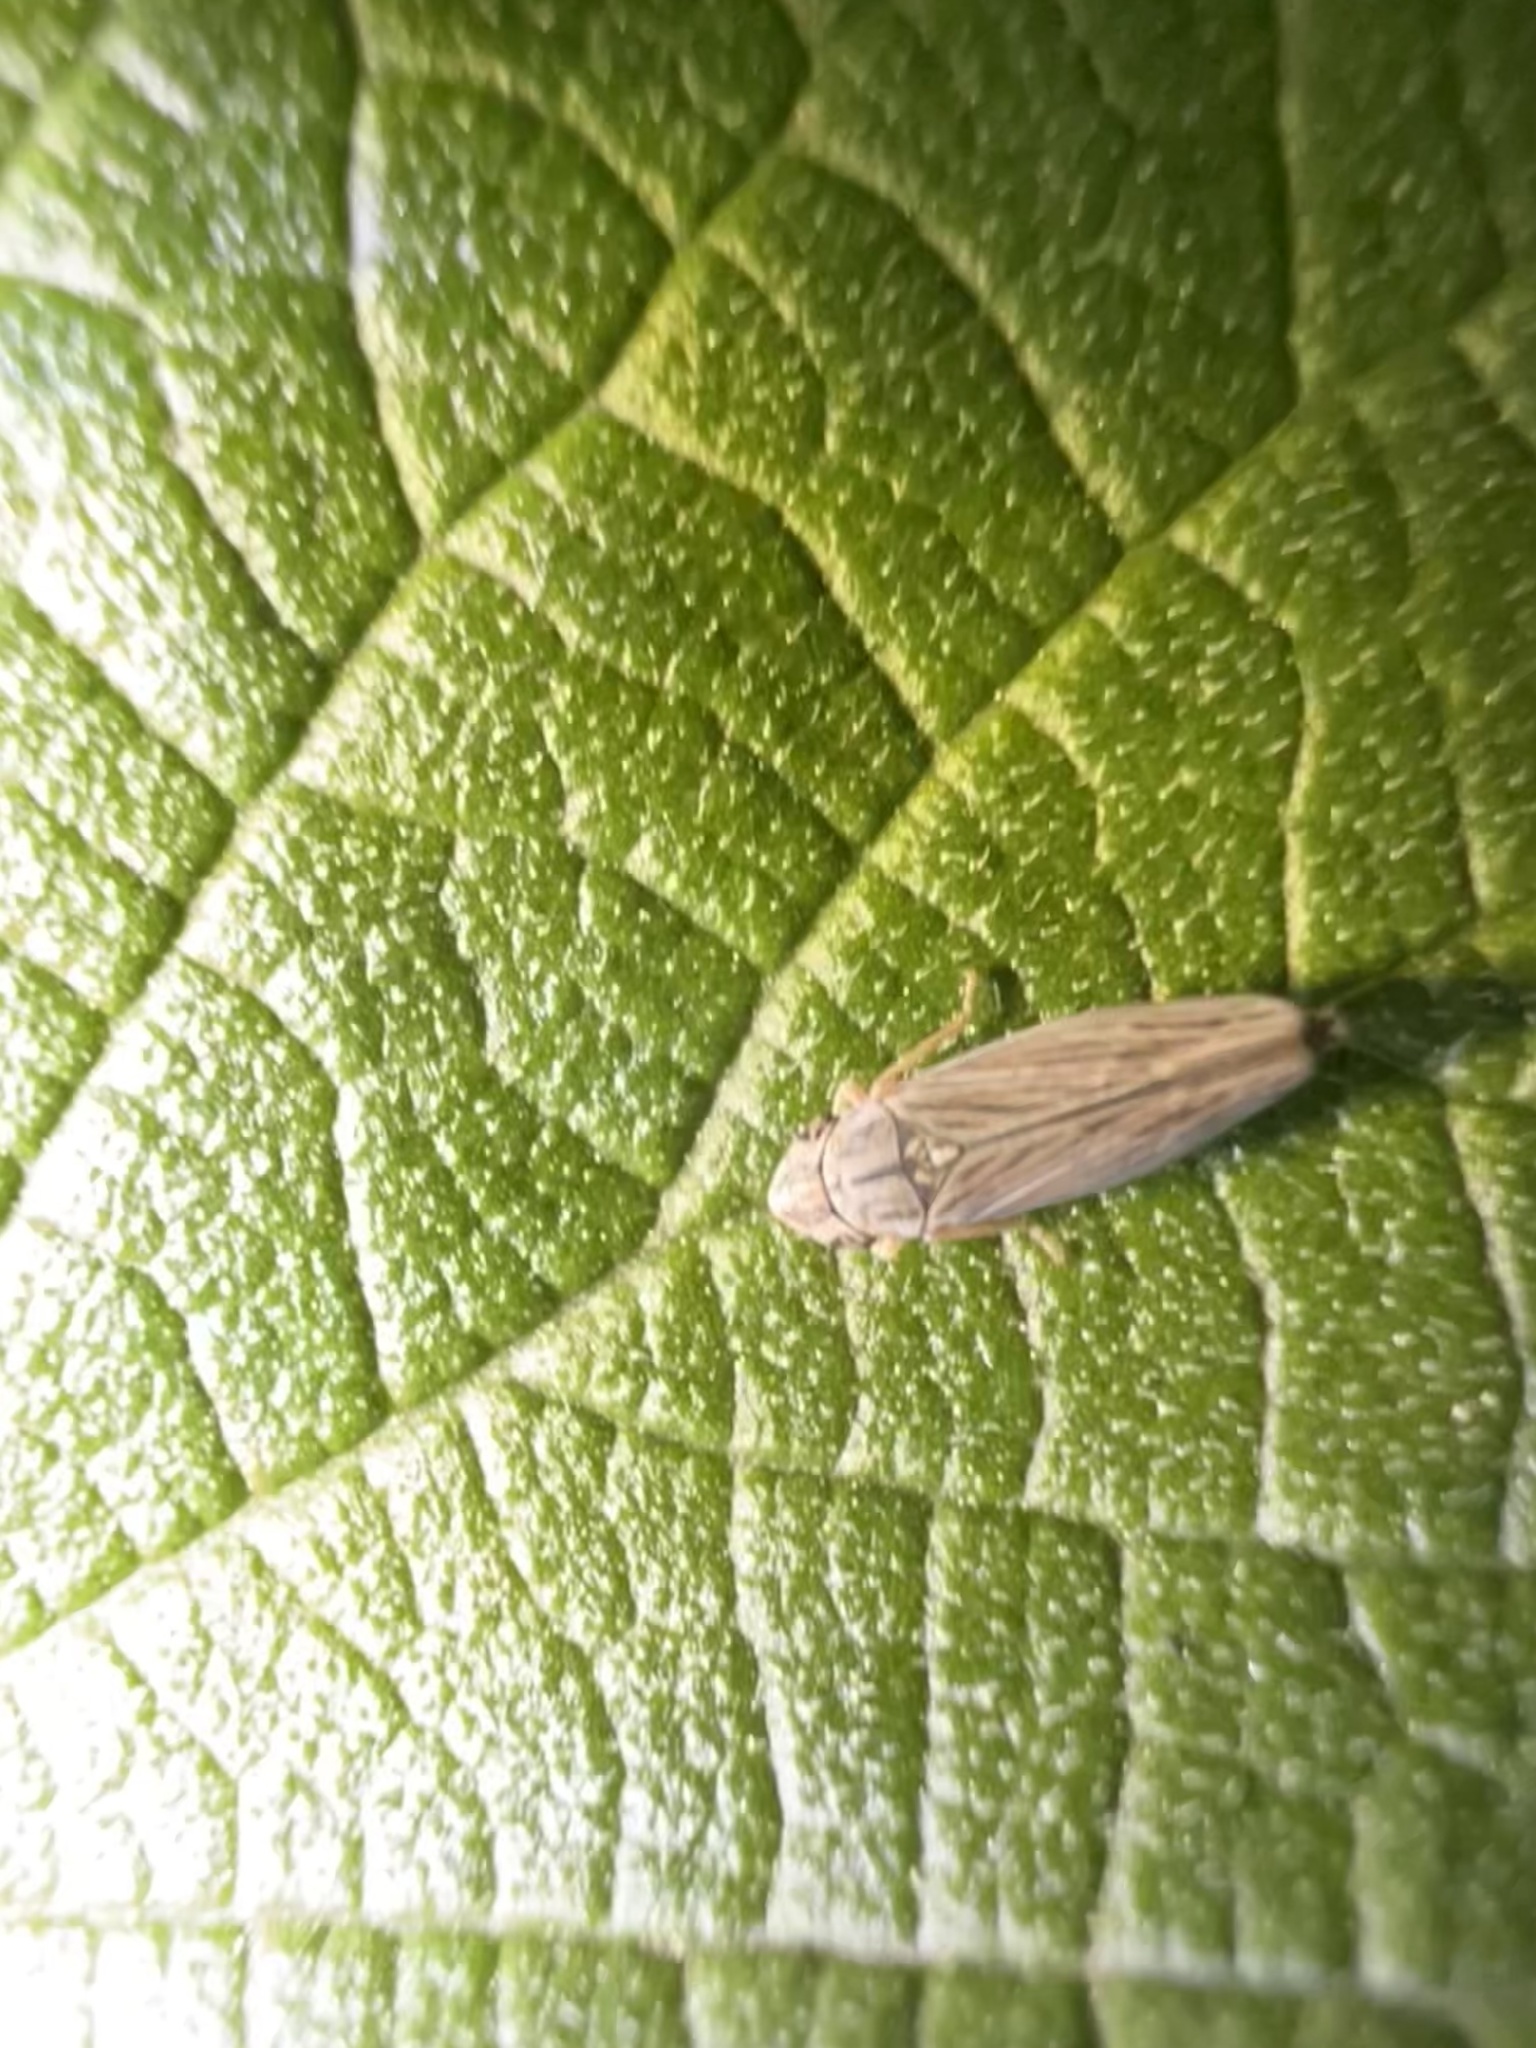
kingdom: Animalia
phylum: Arthropoda
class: Insecta
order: Hemiptera
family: Cicadellidae
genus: Neokolla
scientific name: Neokolla hieroglyphica
